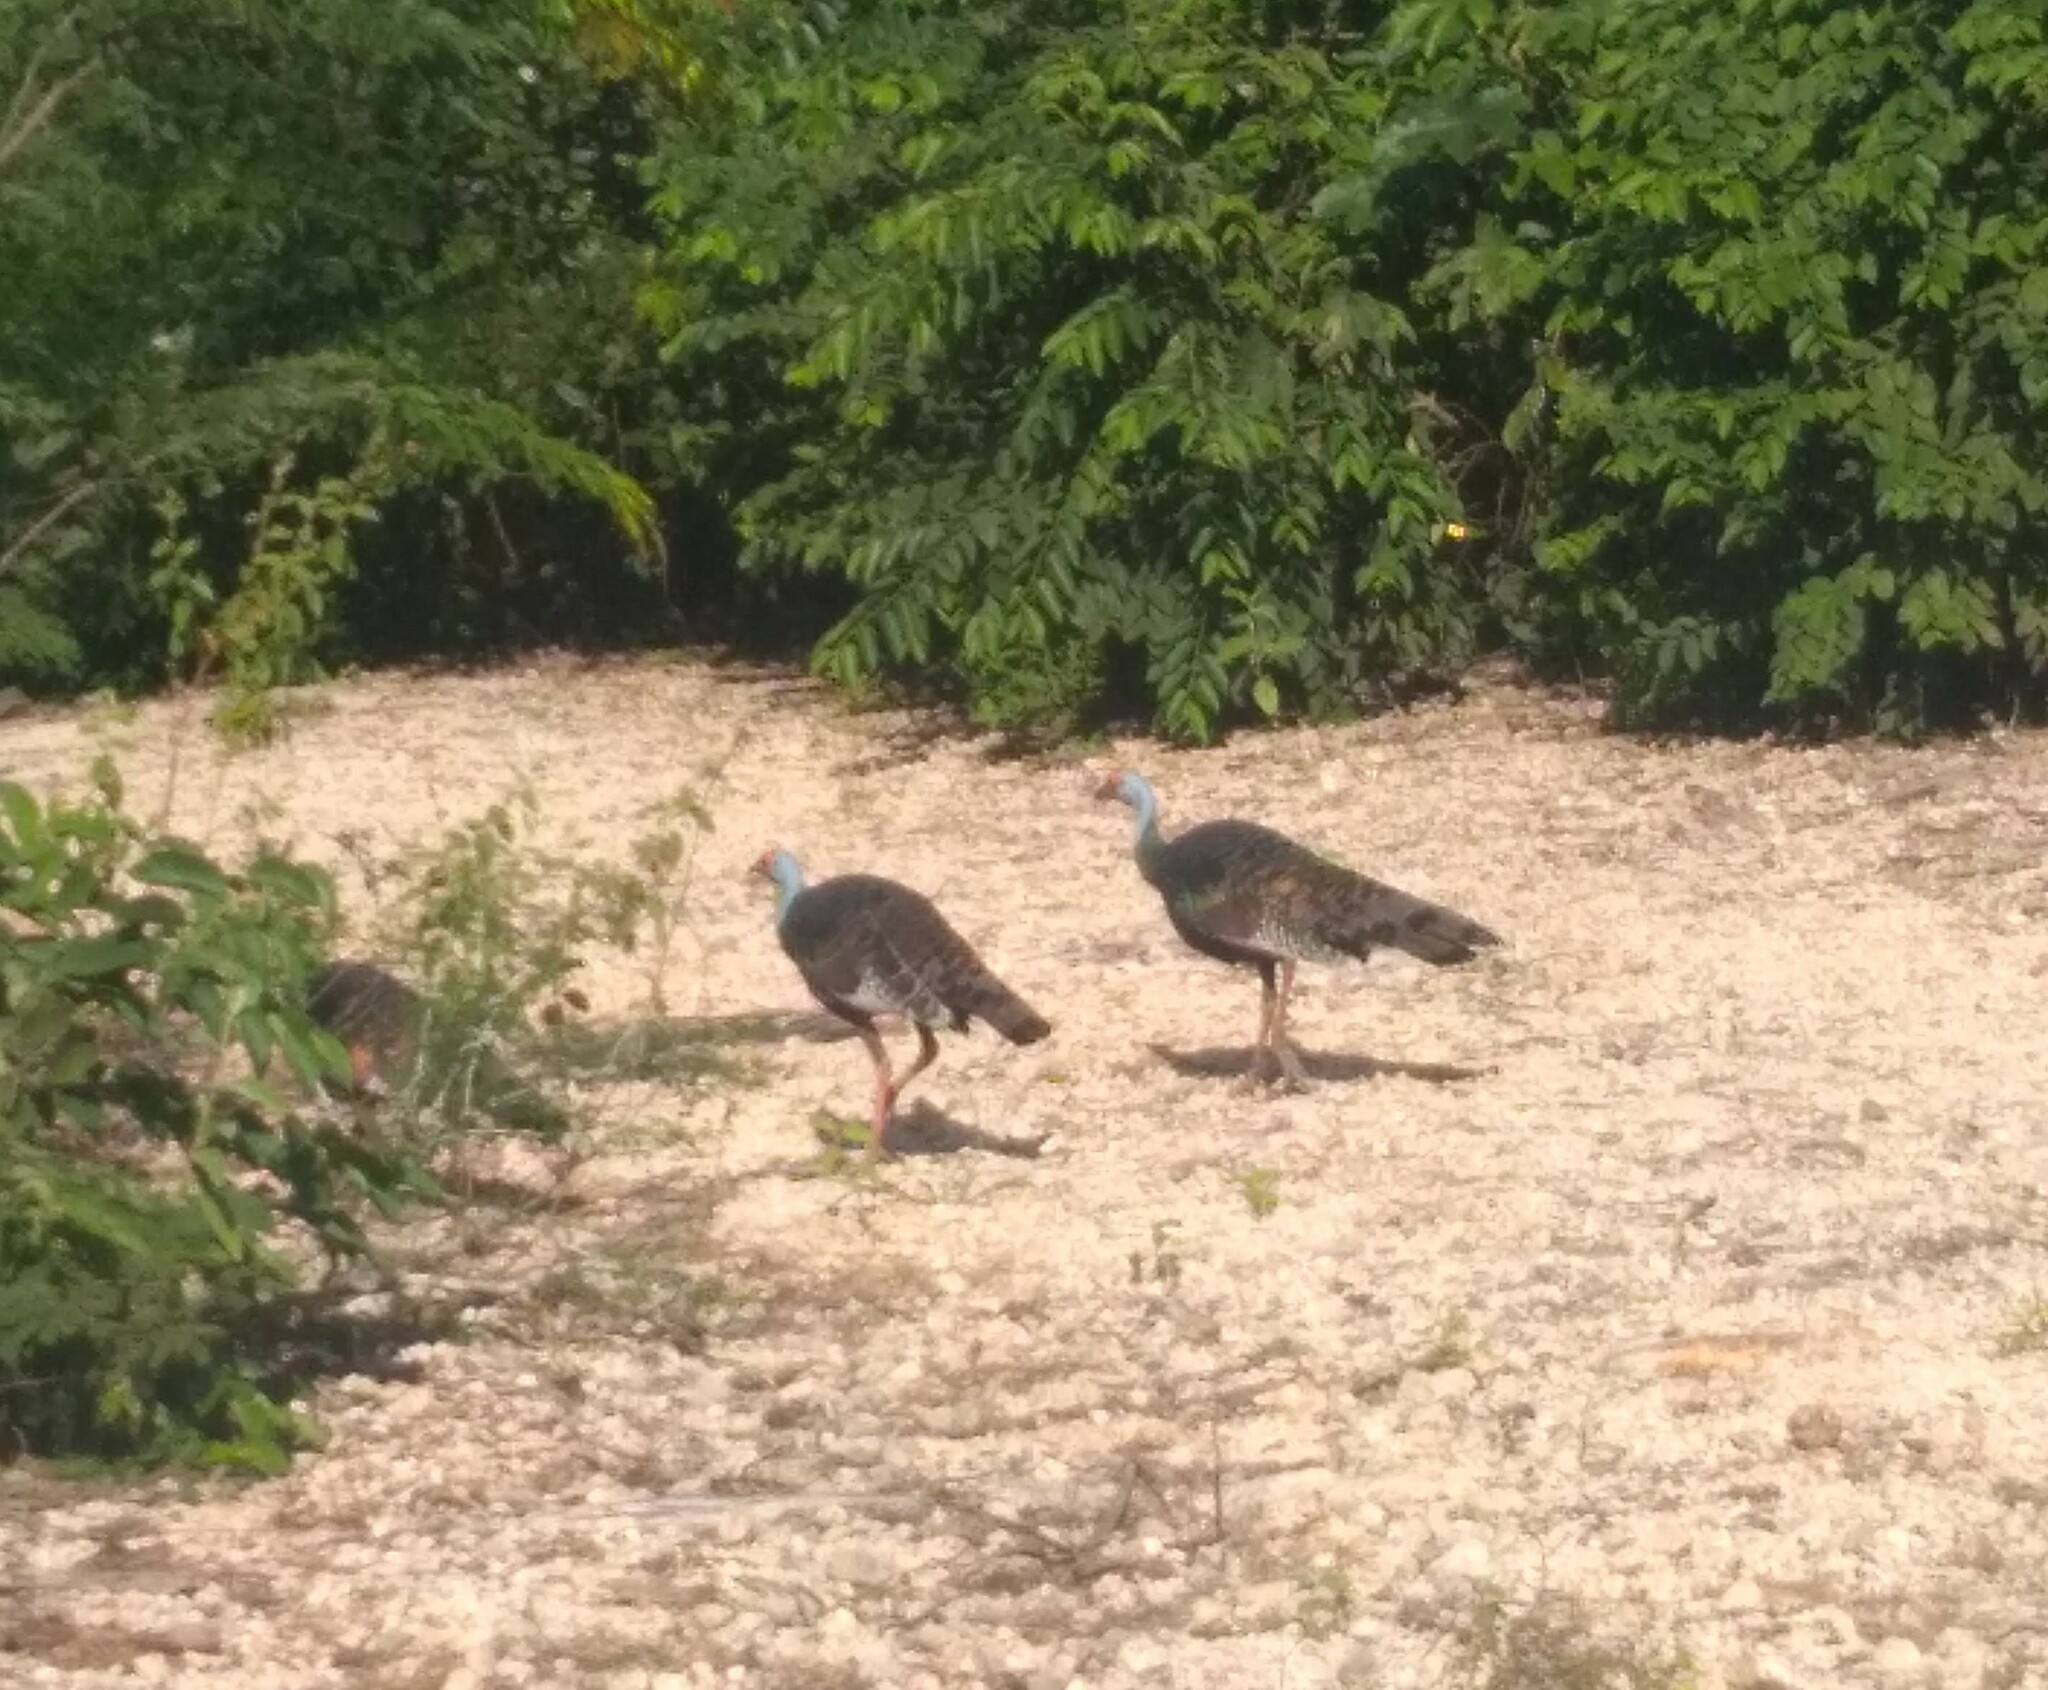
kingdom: Animalia
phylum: Chordata
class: Aves
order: Galliformes
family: Phasianidae
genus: Meleagris
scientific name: Meleagris ocellata
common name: Ocellated turkey
